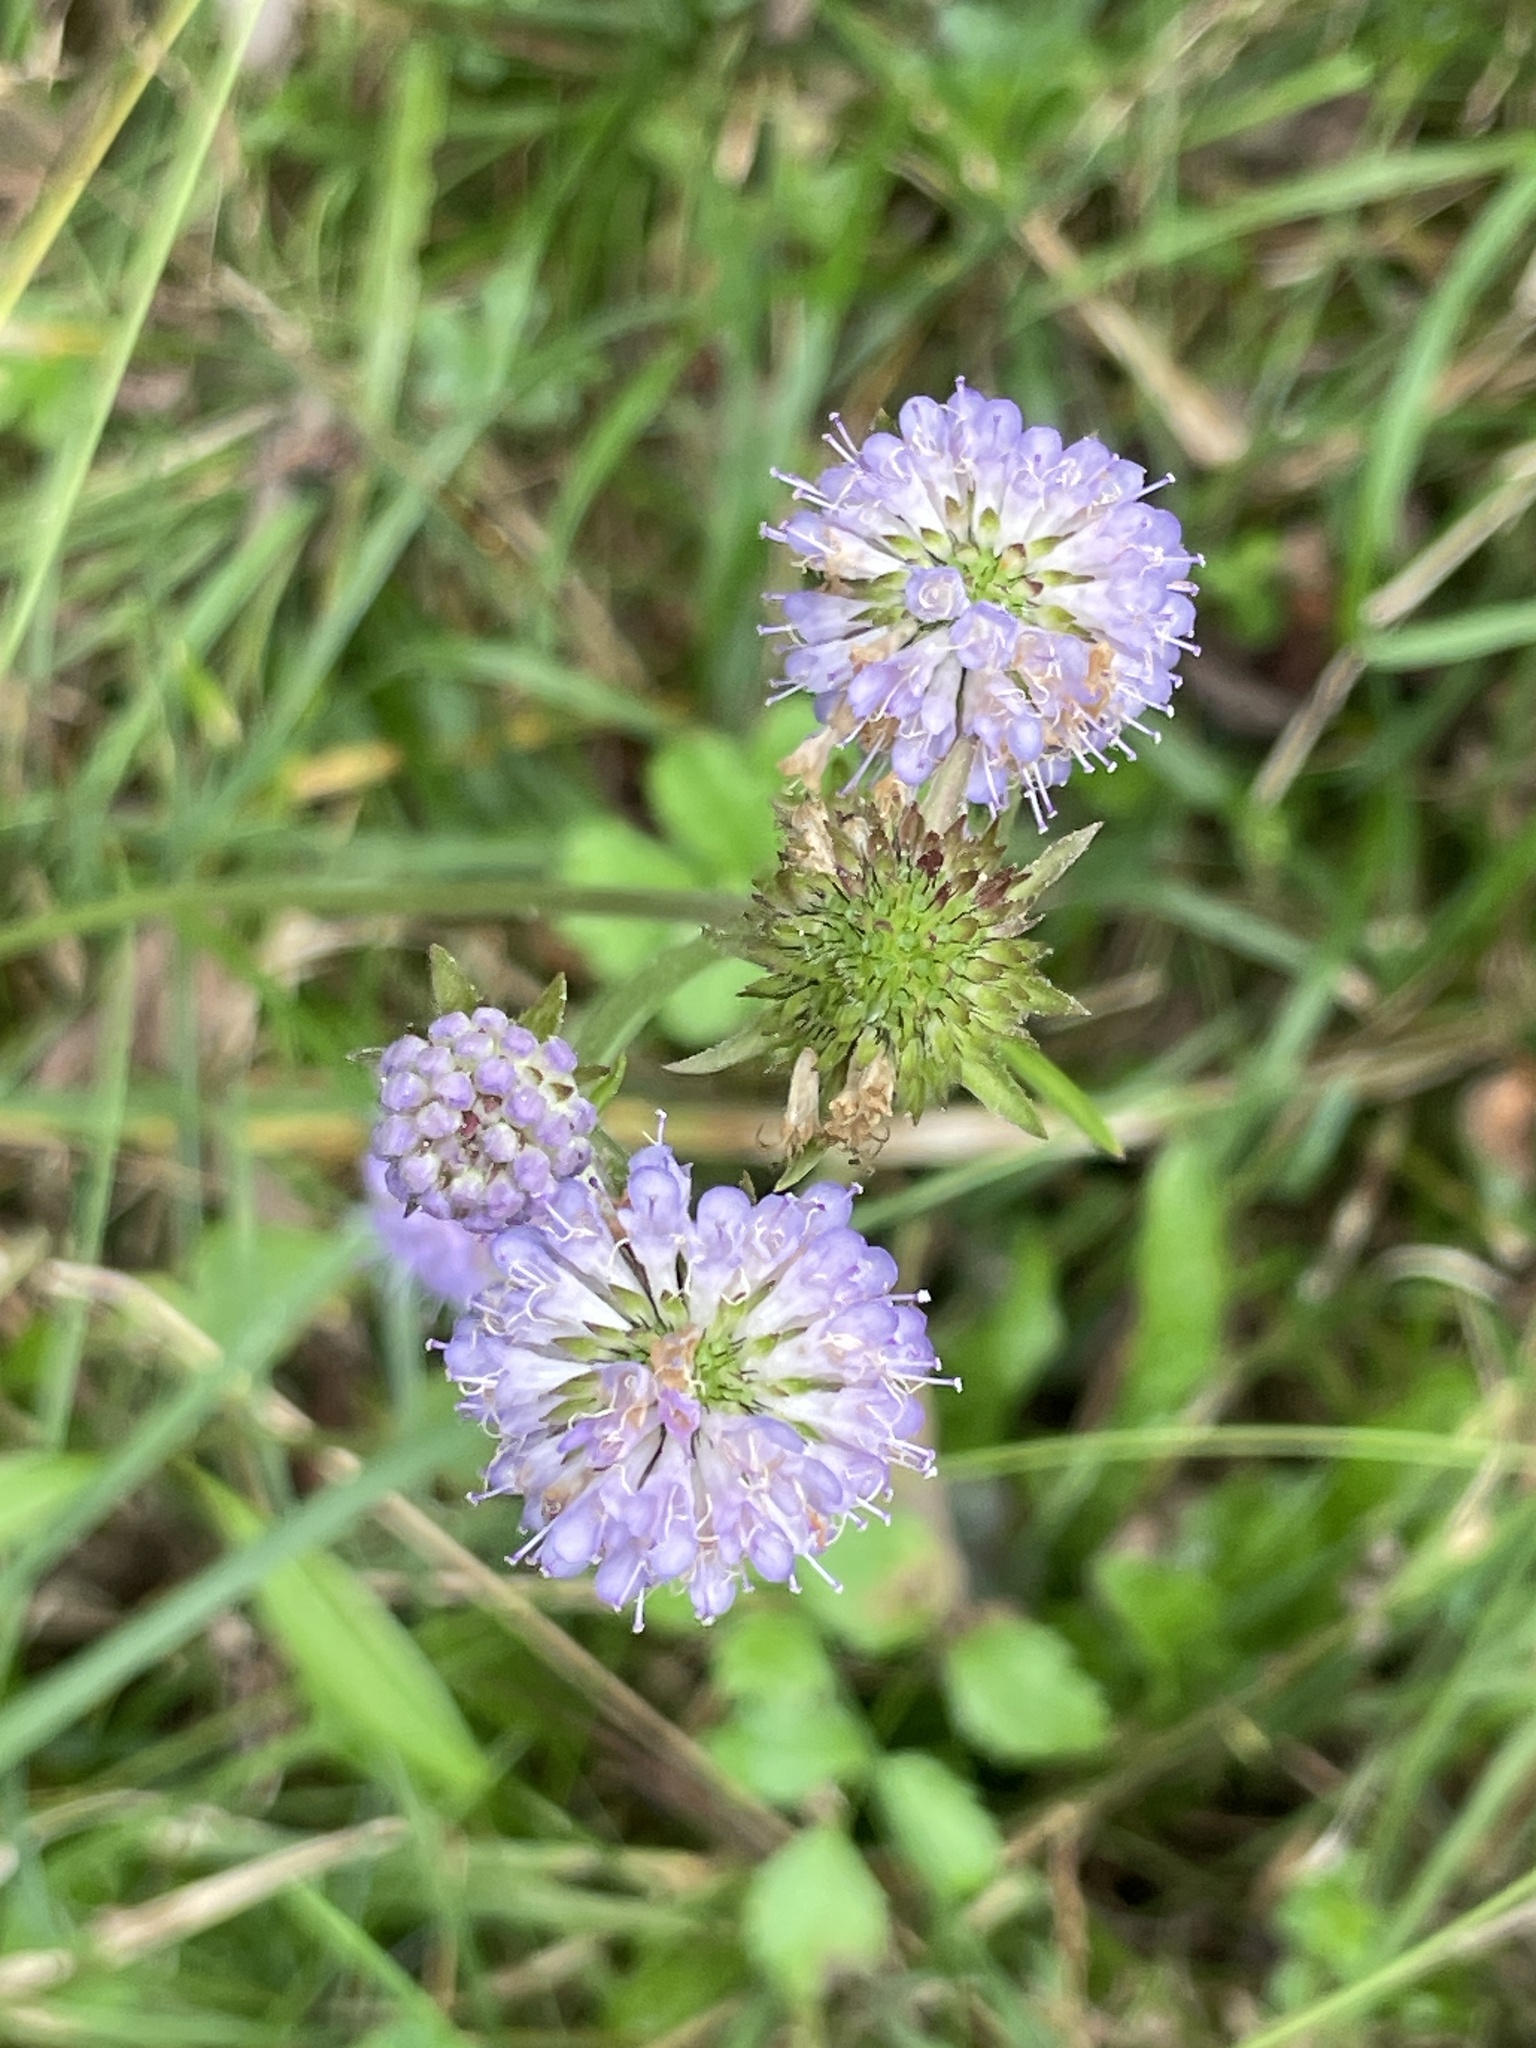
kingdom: Plantae
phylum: Tracheophyta
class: Magnoliopsida
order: Dipsacales
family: Caprifoliaceae
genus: Succisa
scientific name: Succisa pratensis
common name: Devil's-bit
